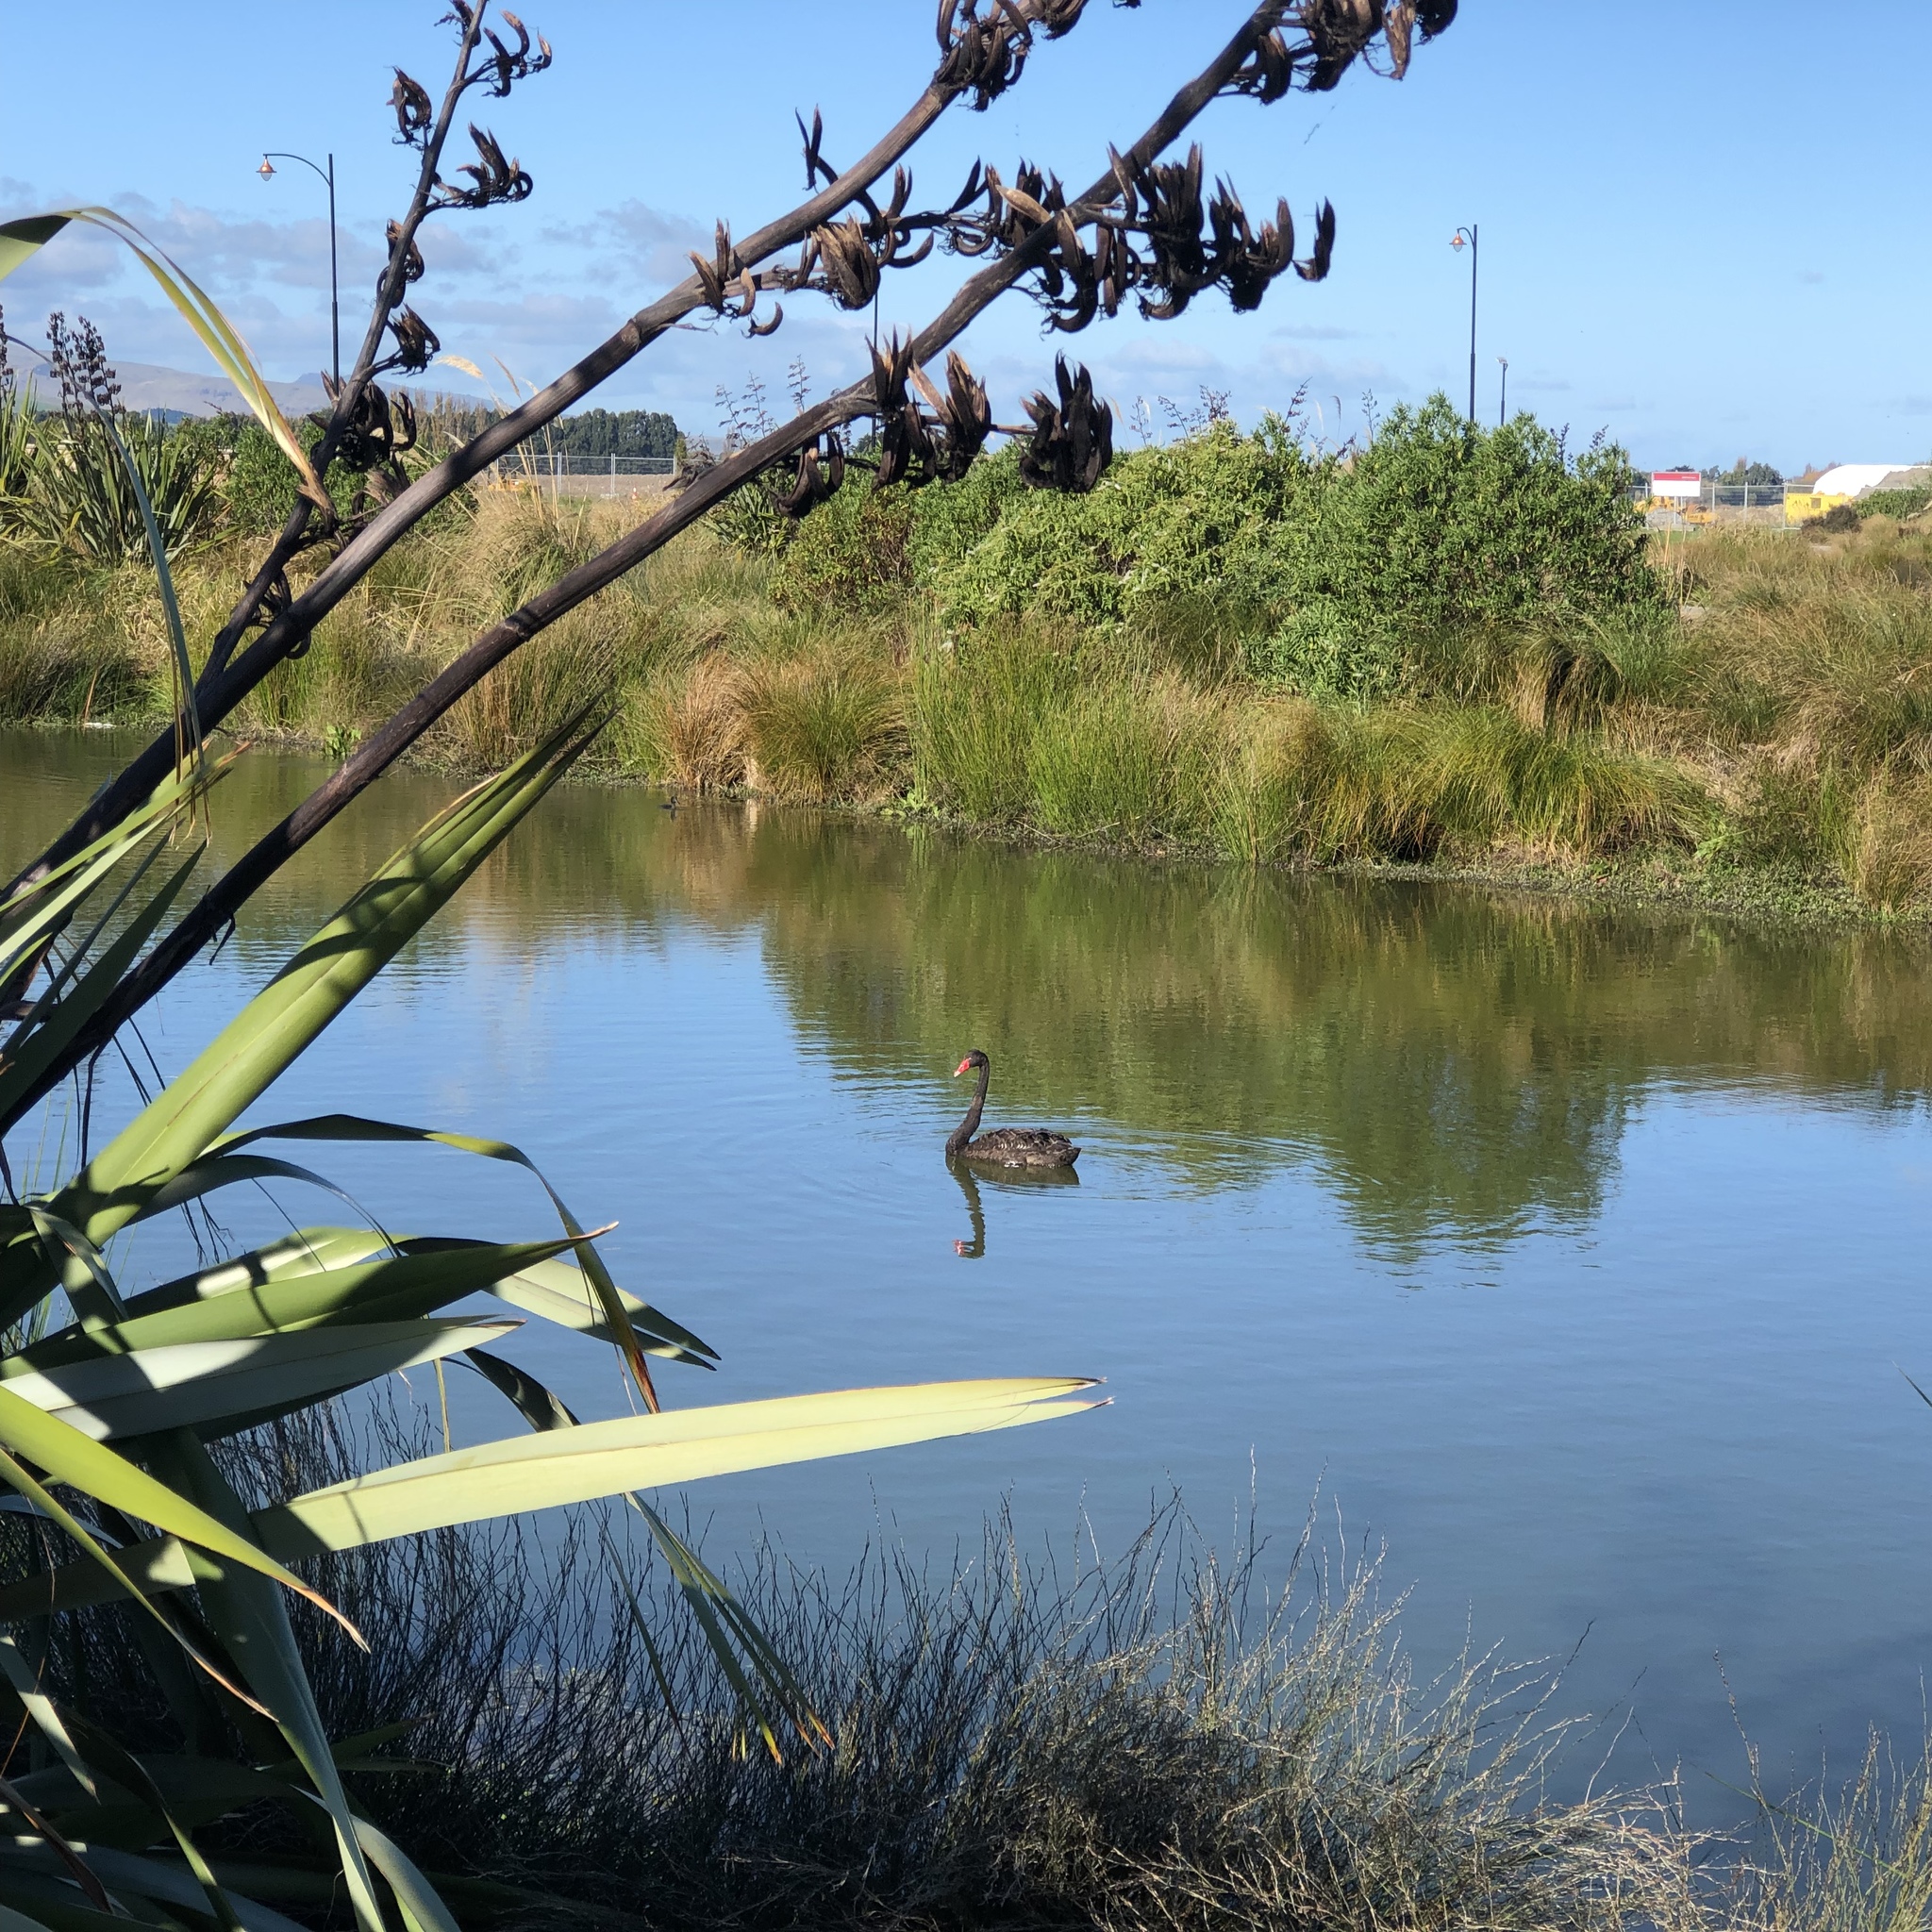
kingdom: Animalia
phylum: Chordata
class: Aves
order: Anseriformes
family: Anatidae
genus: Cygnus
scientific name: Cygnus atratus
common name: Black swan
